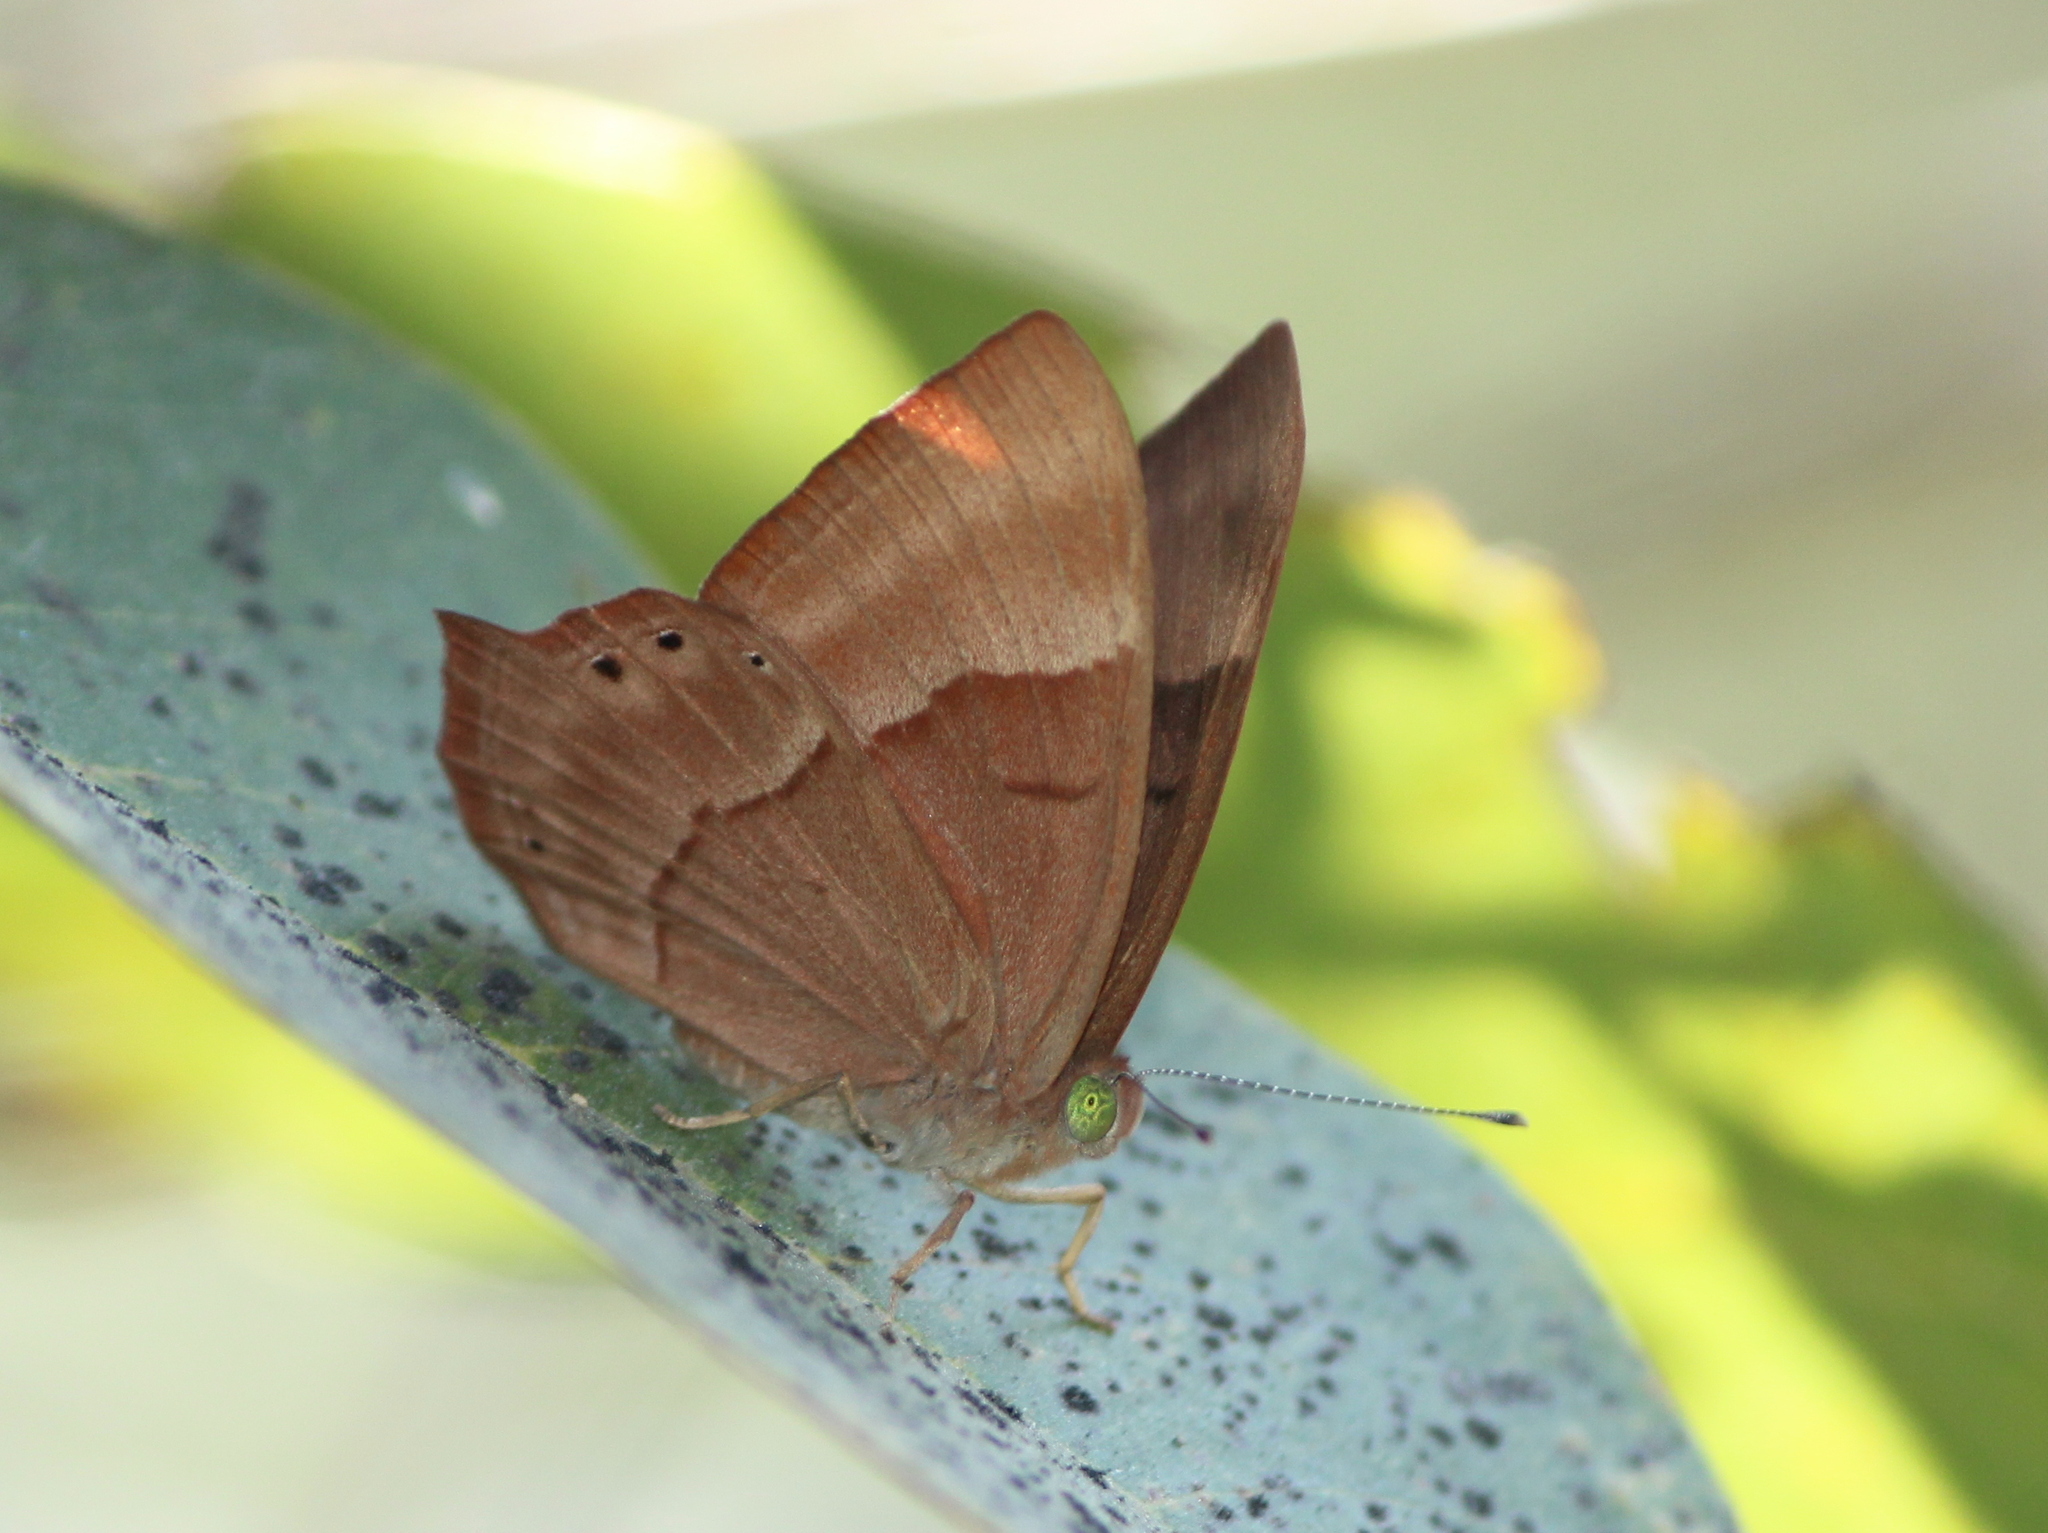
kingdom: Animalia
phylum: Arthropoda
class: Insecta
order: Lepidoptera
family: Lycaenidae
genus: Abisara
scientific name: Abisara bifasciata
